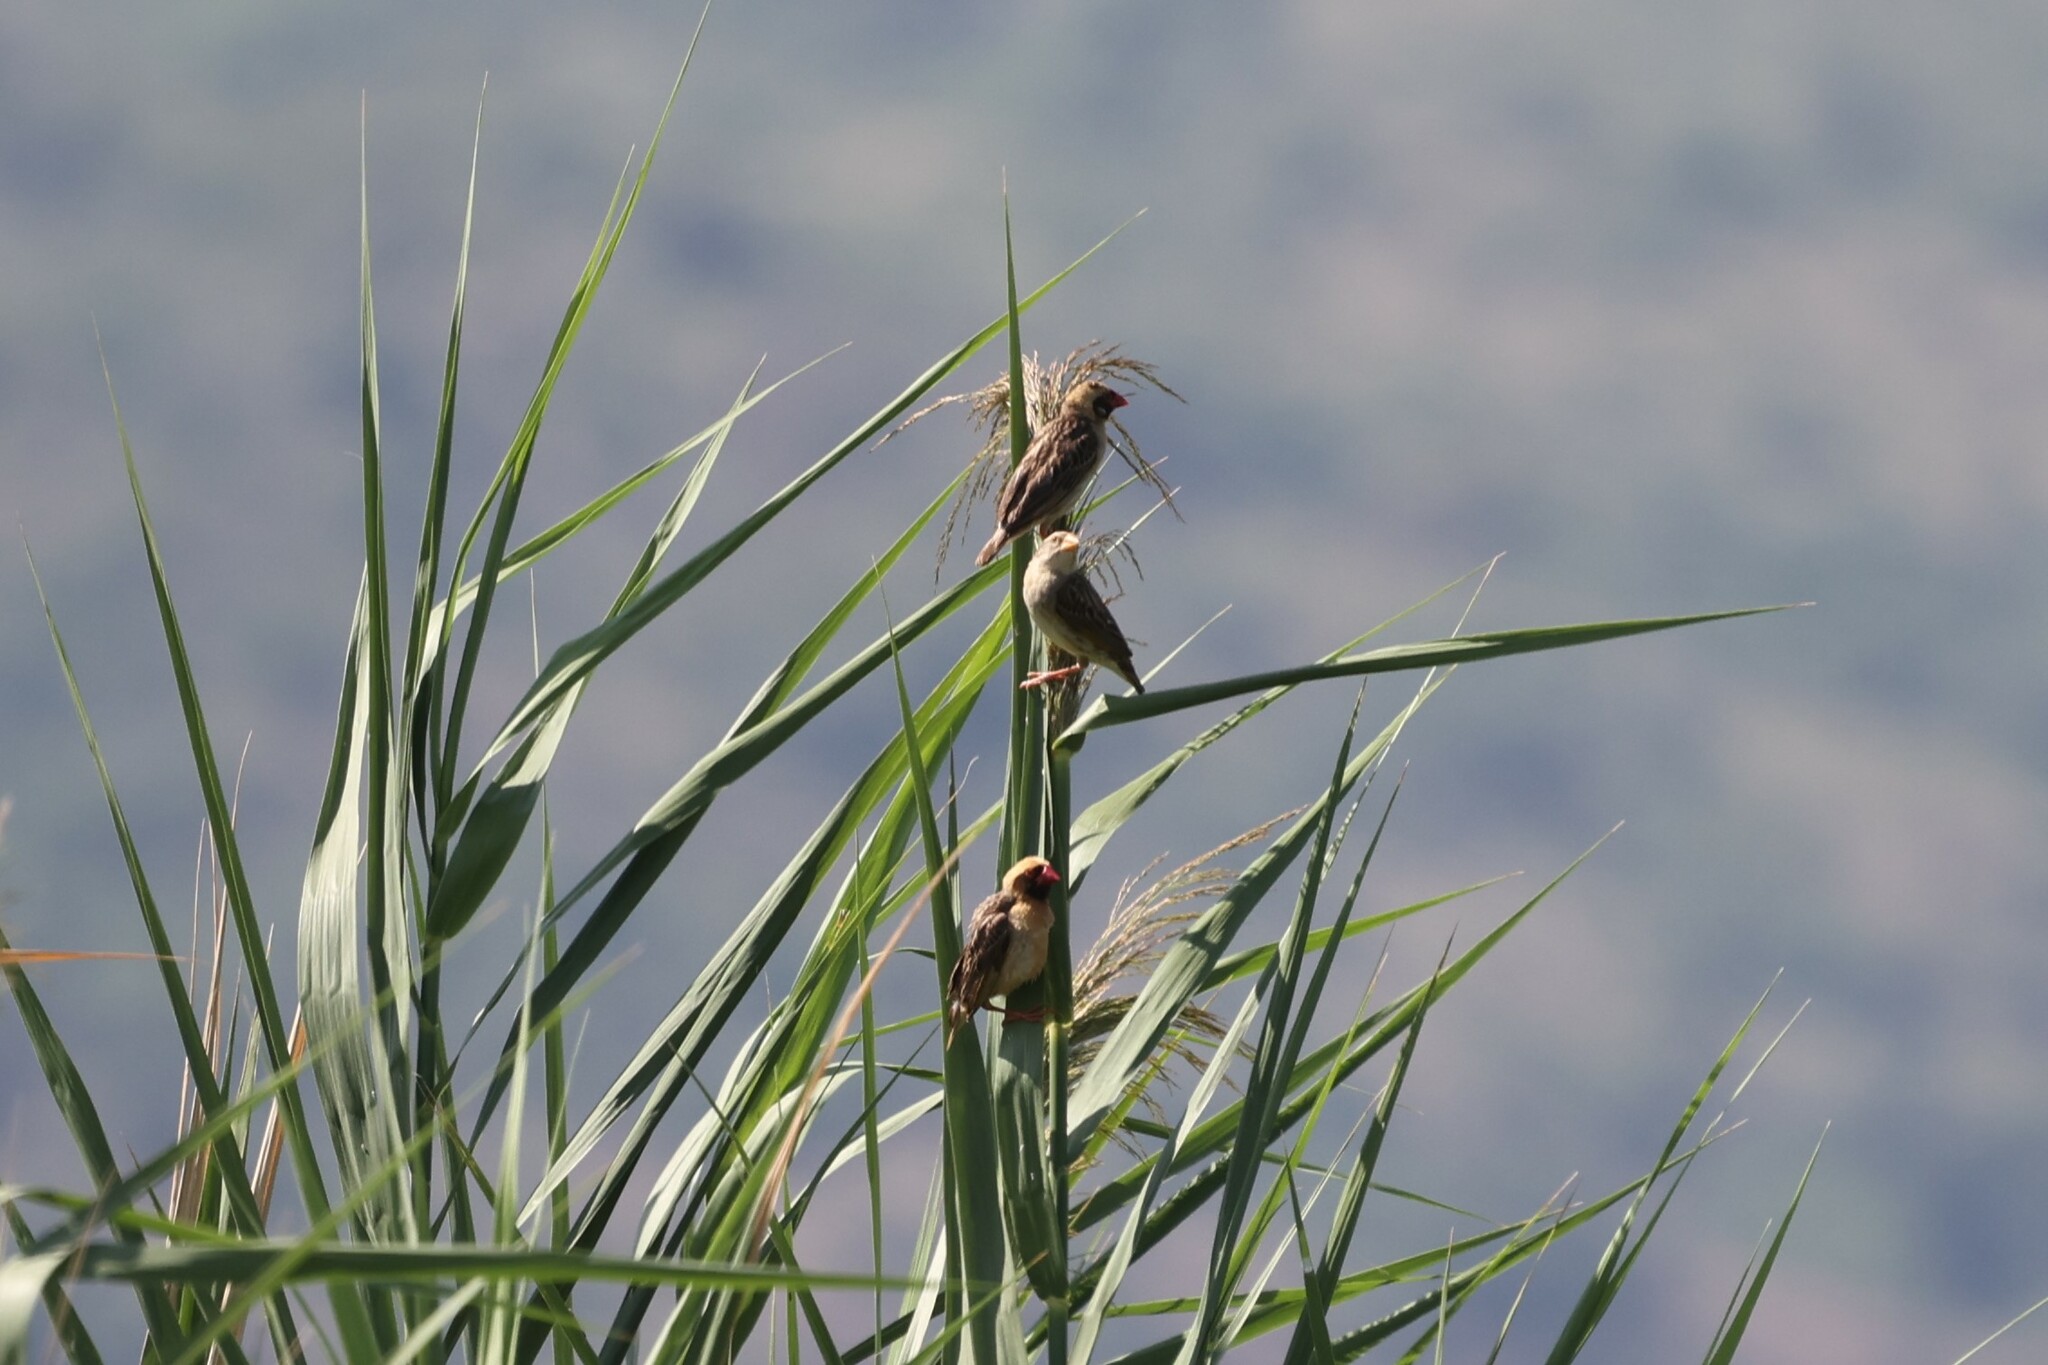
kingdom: Animalia
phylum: Chordata
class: Aves
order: Passeriformes
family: Ploceidae
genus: Quelea
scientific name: Quelea quelea
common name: Red-billed quelea
